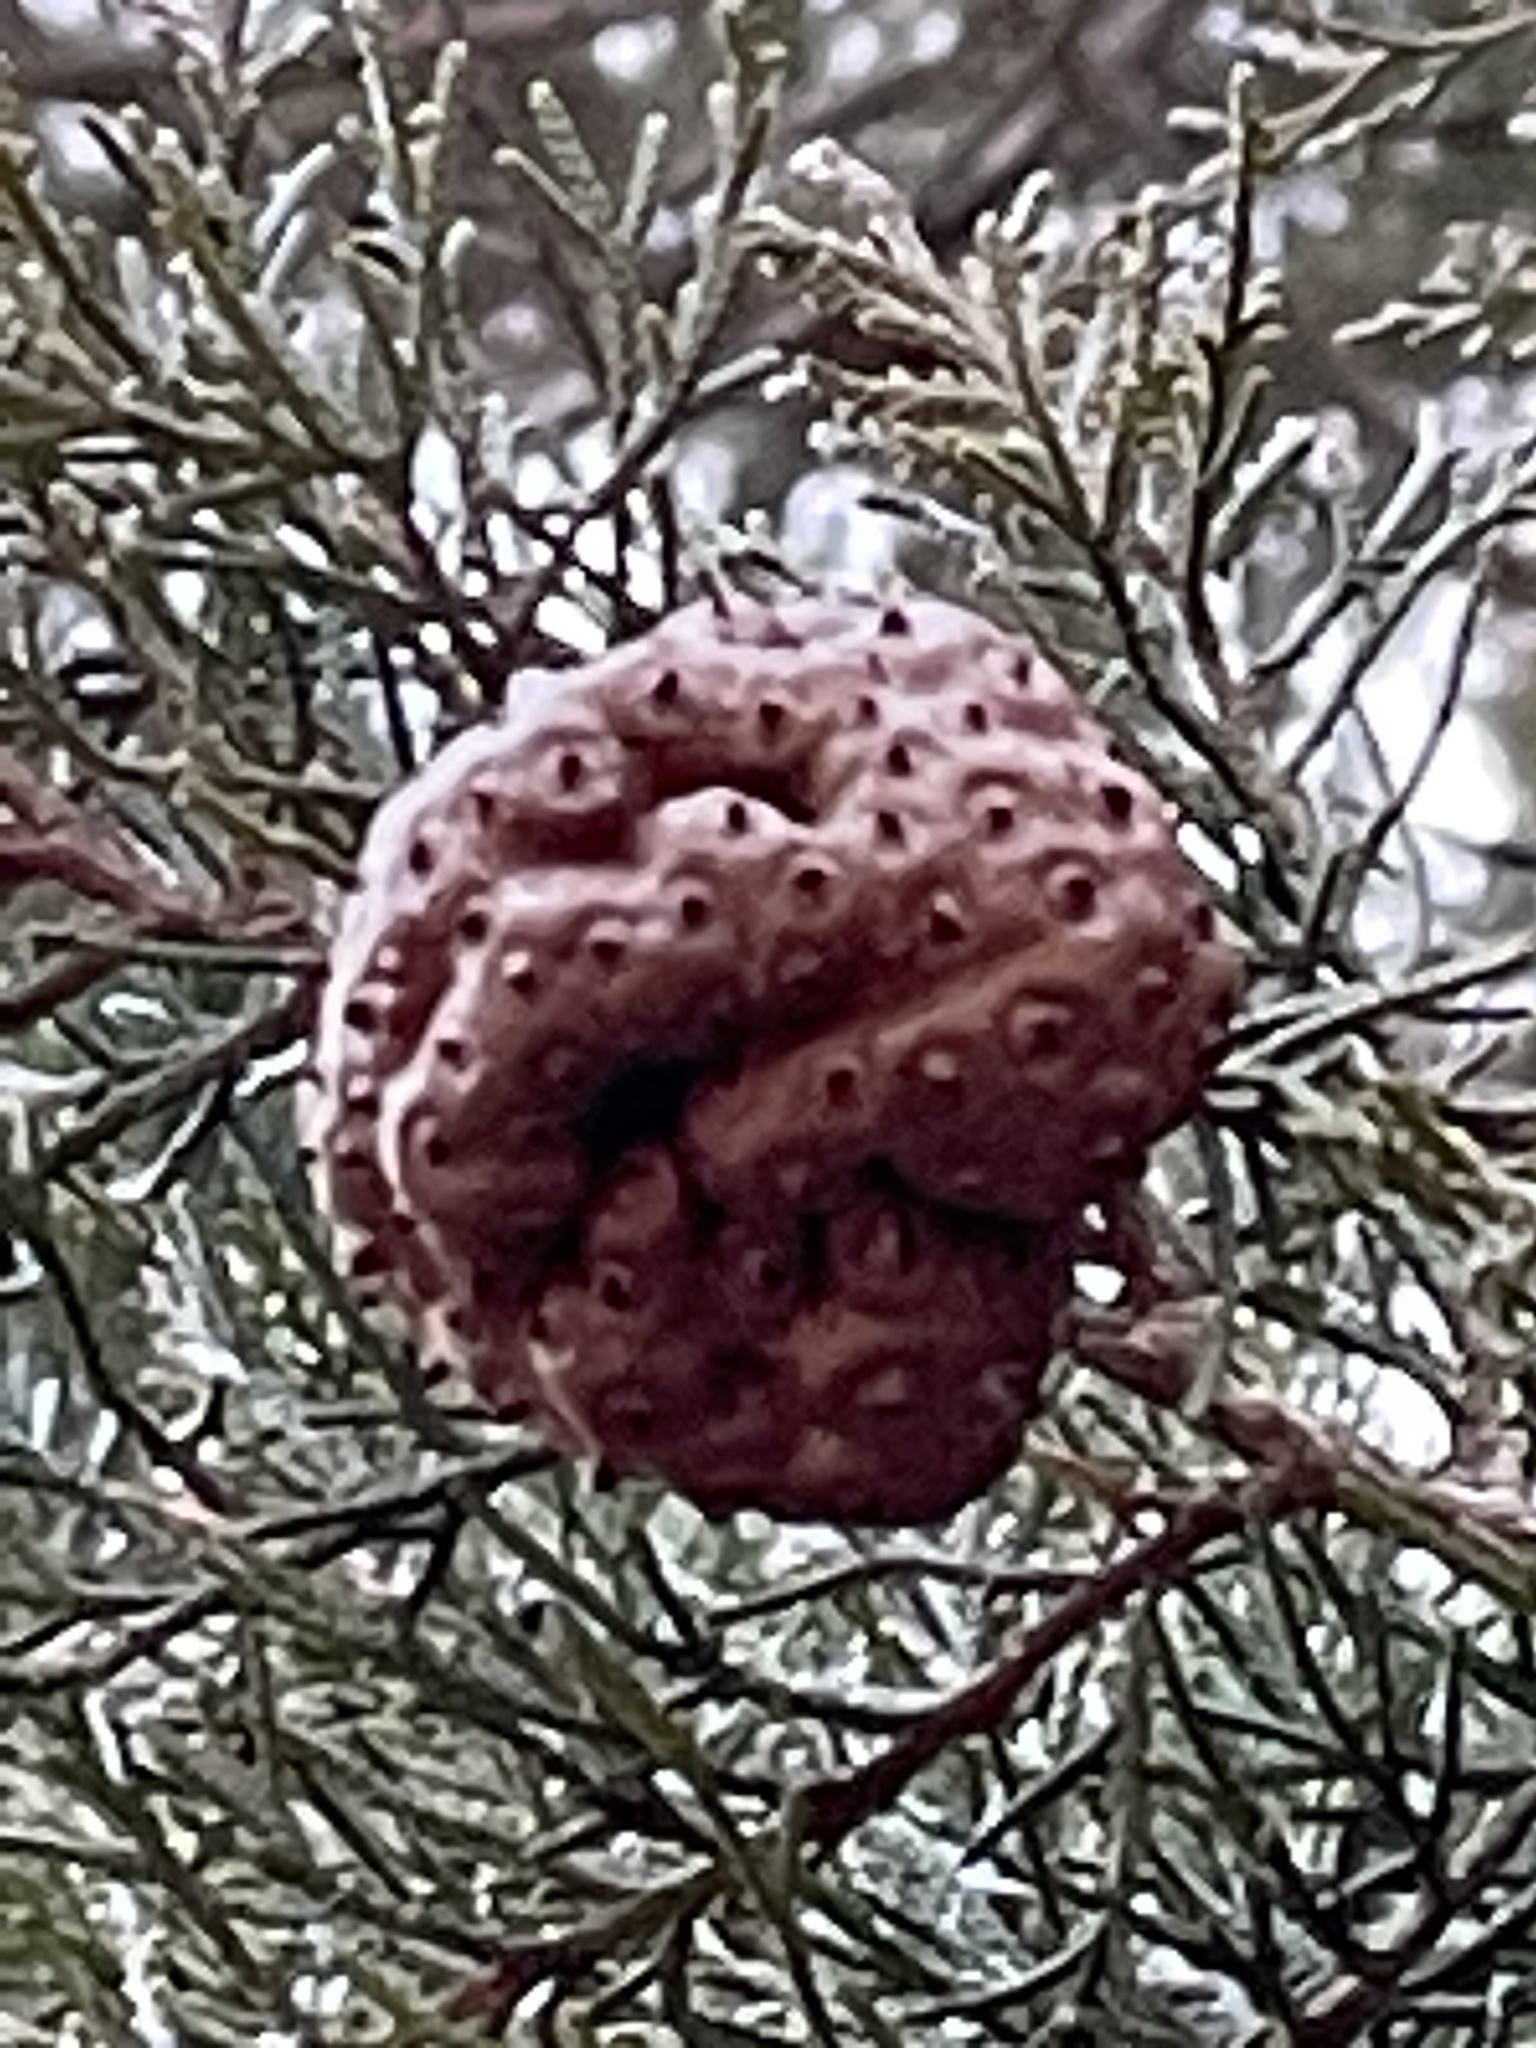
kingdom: Fungi
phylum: Basidiomycota
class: Pucciniomycetes
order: Pucciniales
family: Gymnosporangiaceae
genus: Gymnosporangium
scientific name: Gymnosporangium juniperi-virginianae
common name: Juniper-apple rust
